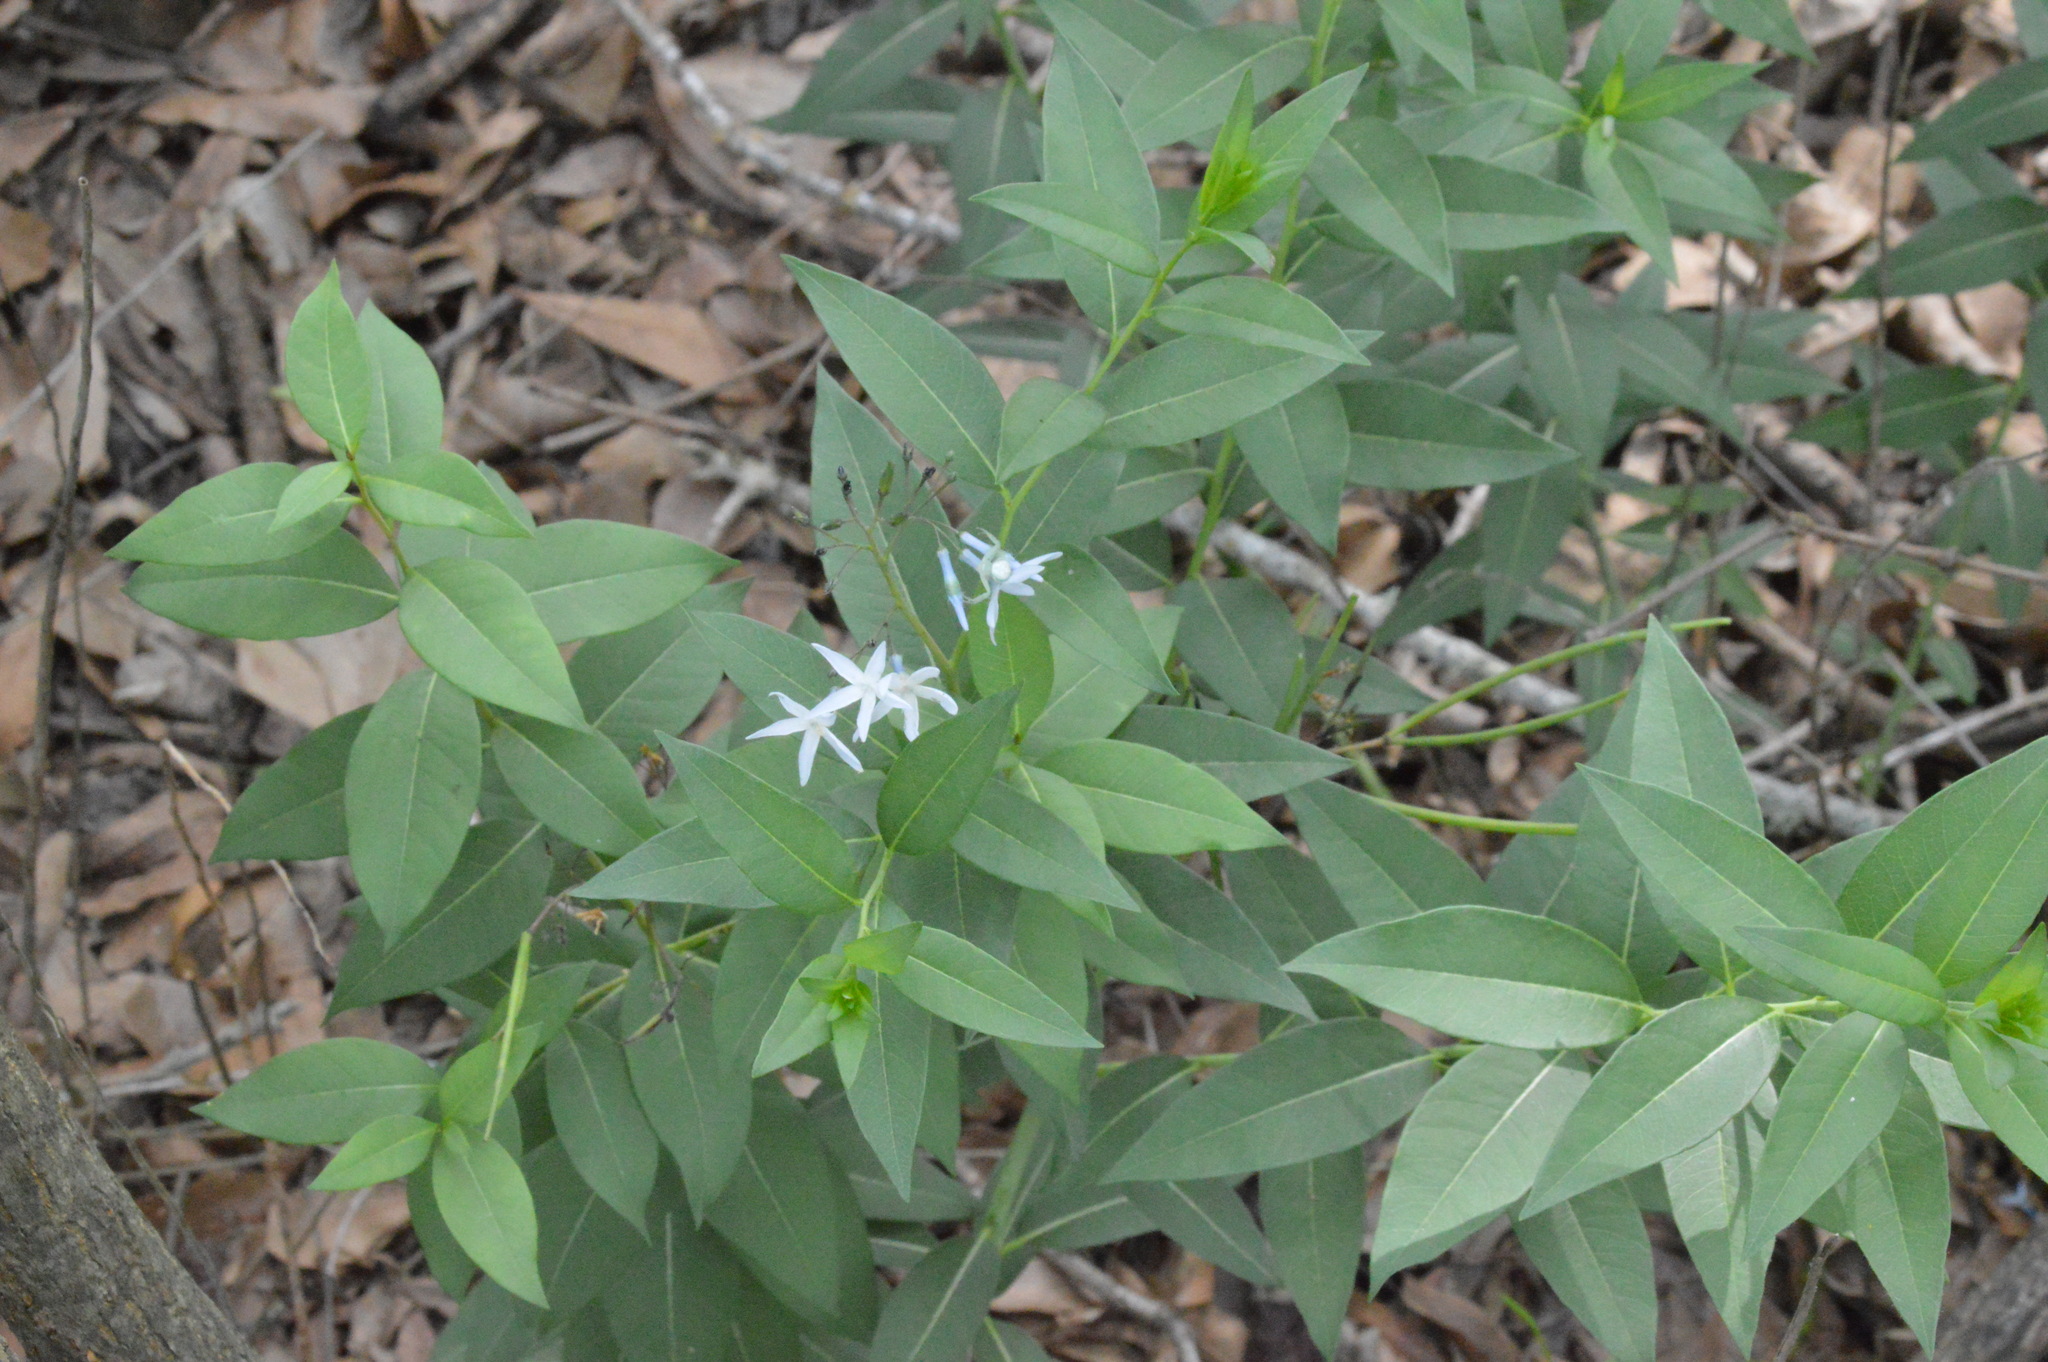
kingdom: Plantae
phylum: Tracheophyta
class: Magnoliopsida
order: Gentianales
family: Apocynaceae
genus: Amsonia
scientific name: Amsonia tabernaemontana
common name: Texas-star
